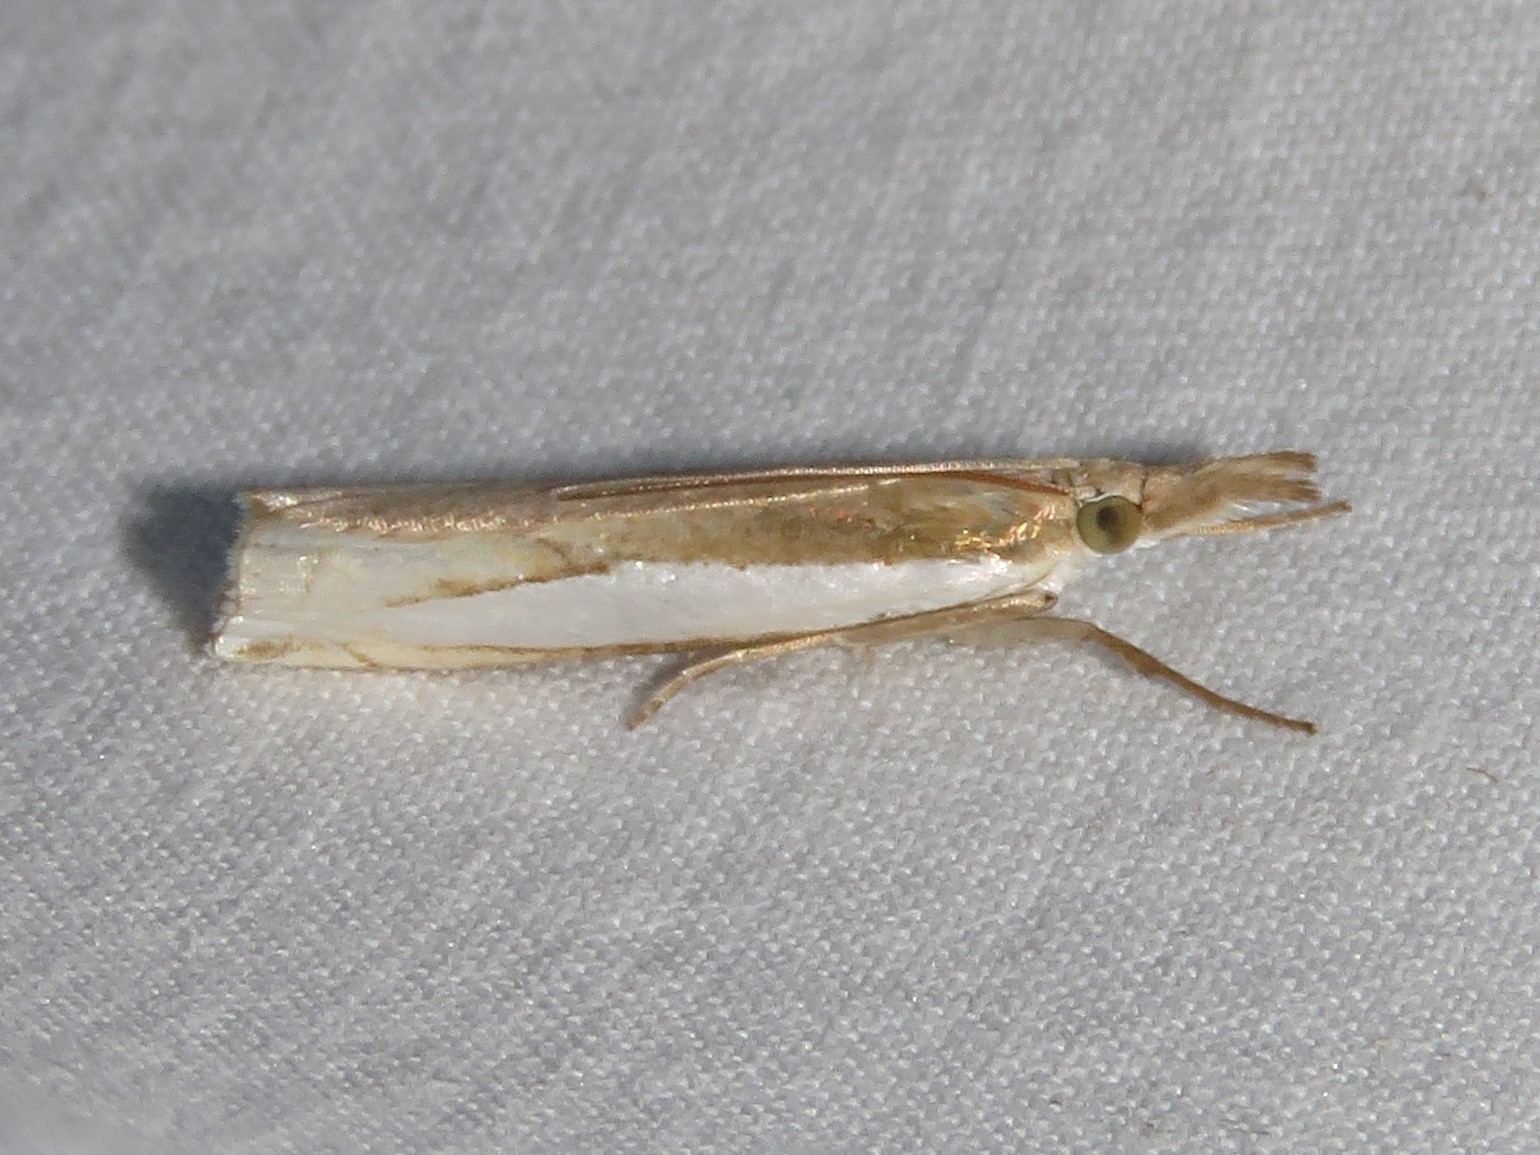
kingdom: Animalia
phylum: Arthropoda
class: Insecta
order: Lepidoptera
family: Crambidae
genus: Crambus
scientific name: Crambus leachellus
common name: Leach's grass-veneer
